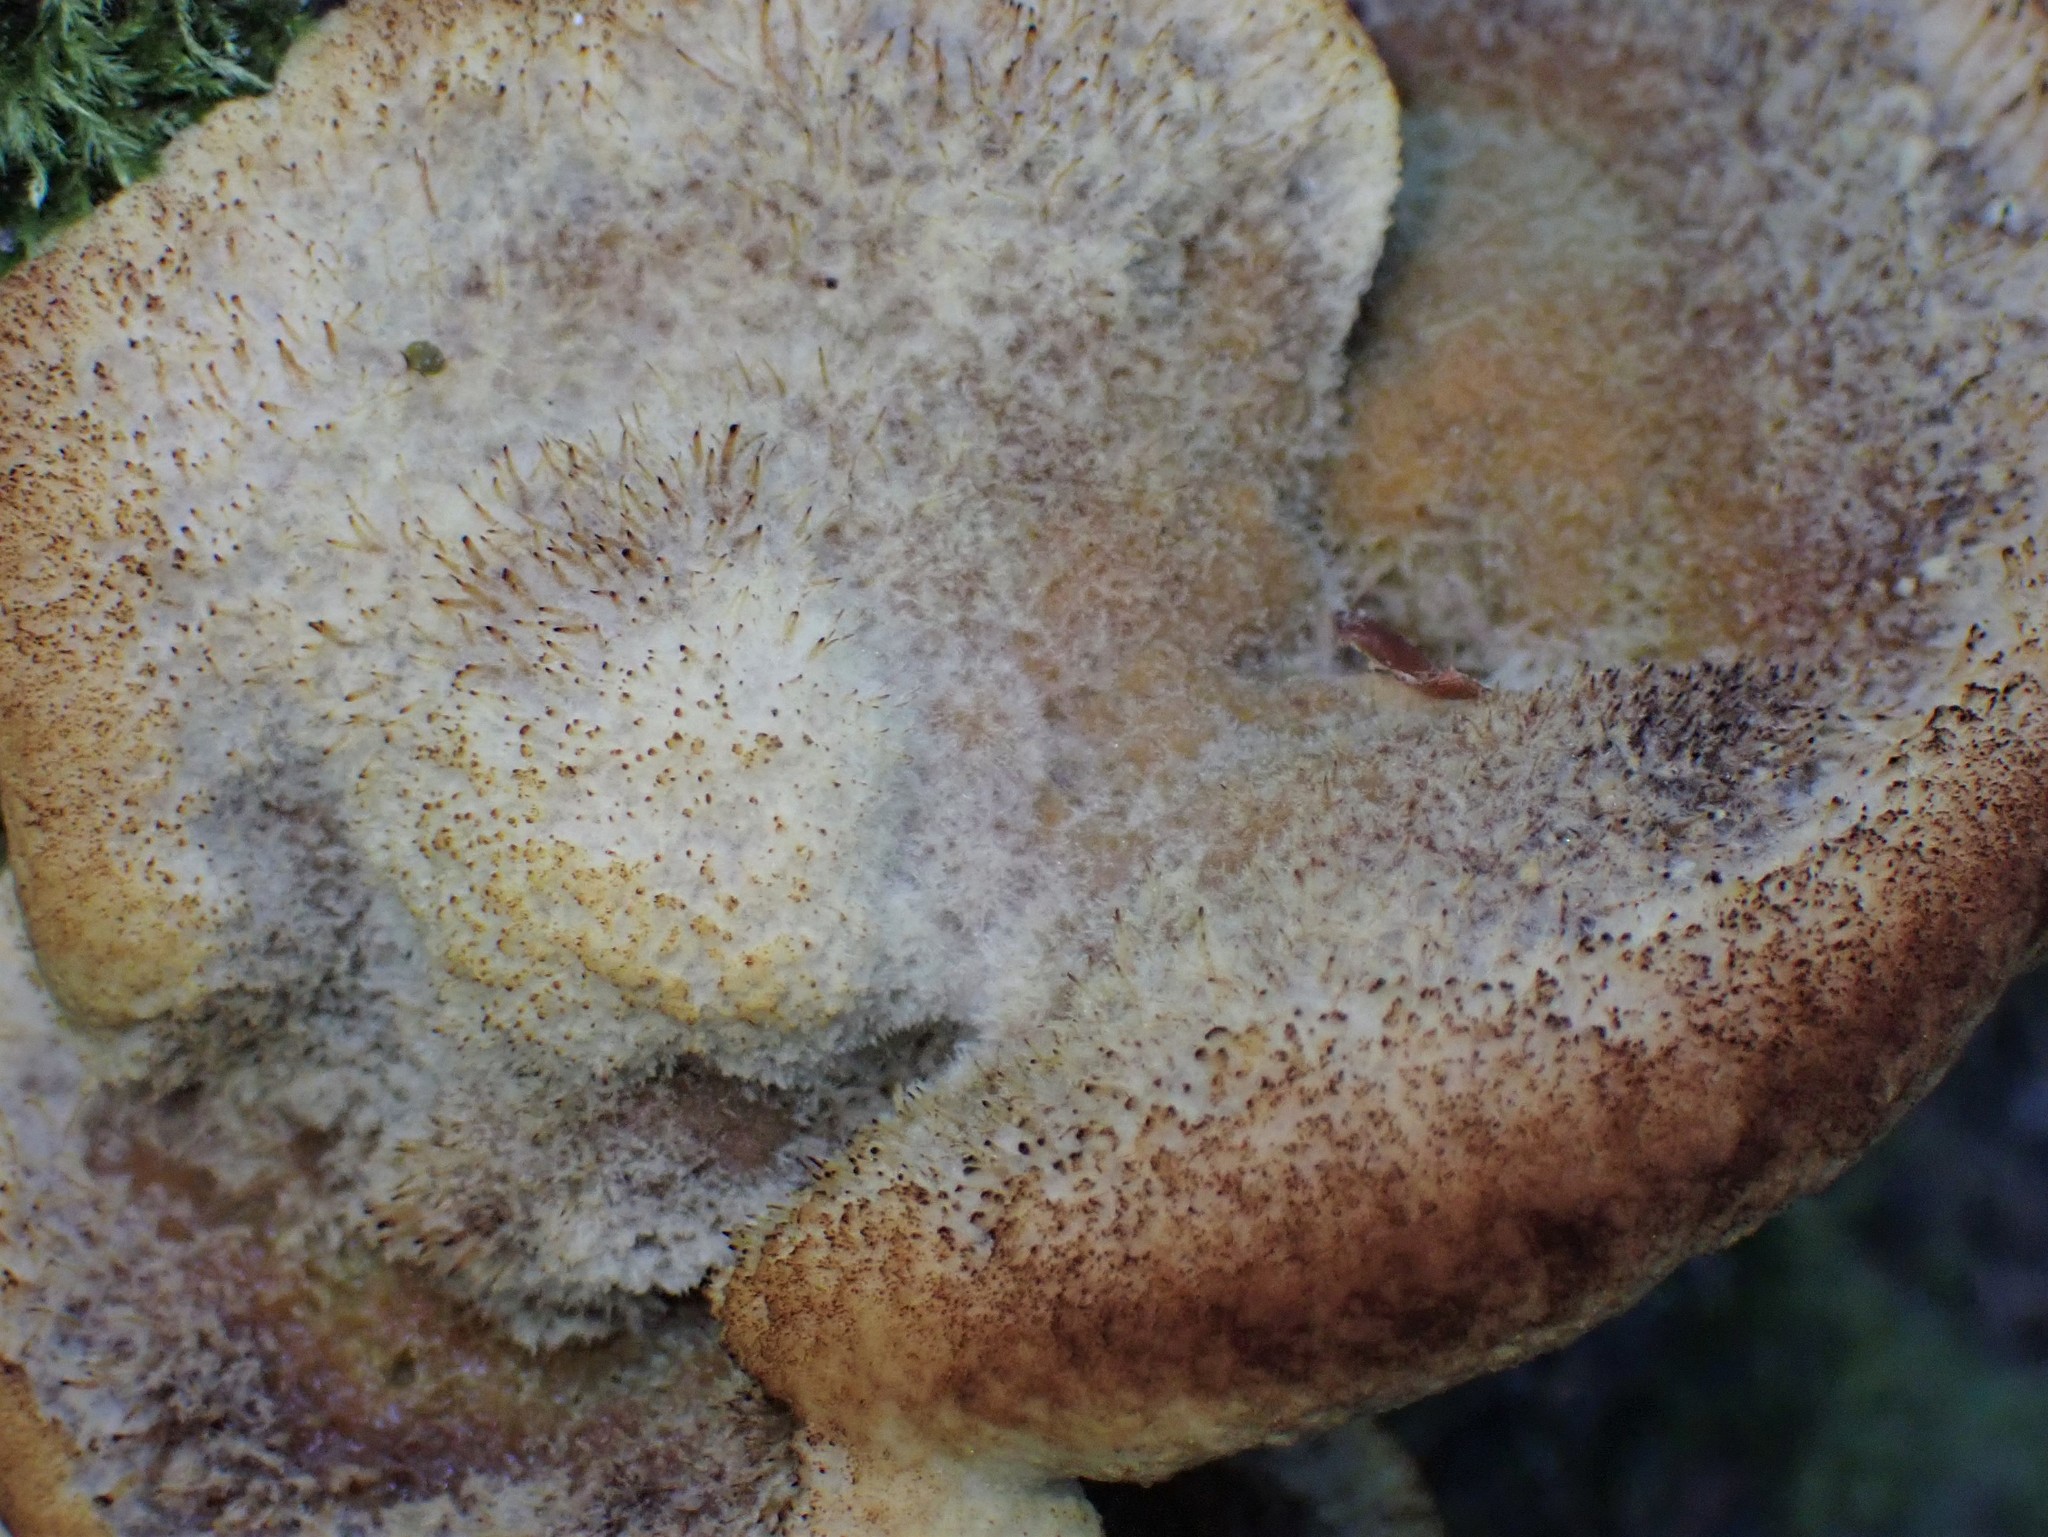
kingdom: Fungi
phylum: Basidiomycota
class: Agaricomycetes
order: Polyporales
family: Laetiporaceae
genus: Phaeolus
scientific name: Phaeolus schweinitzii
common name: Dyer's mazegill
